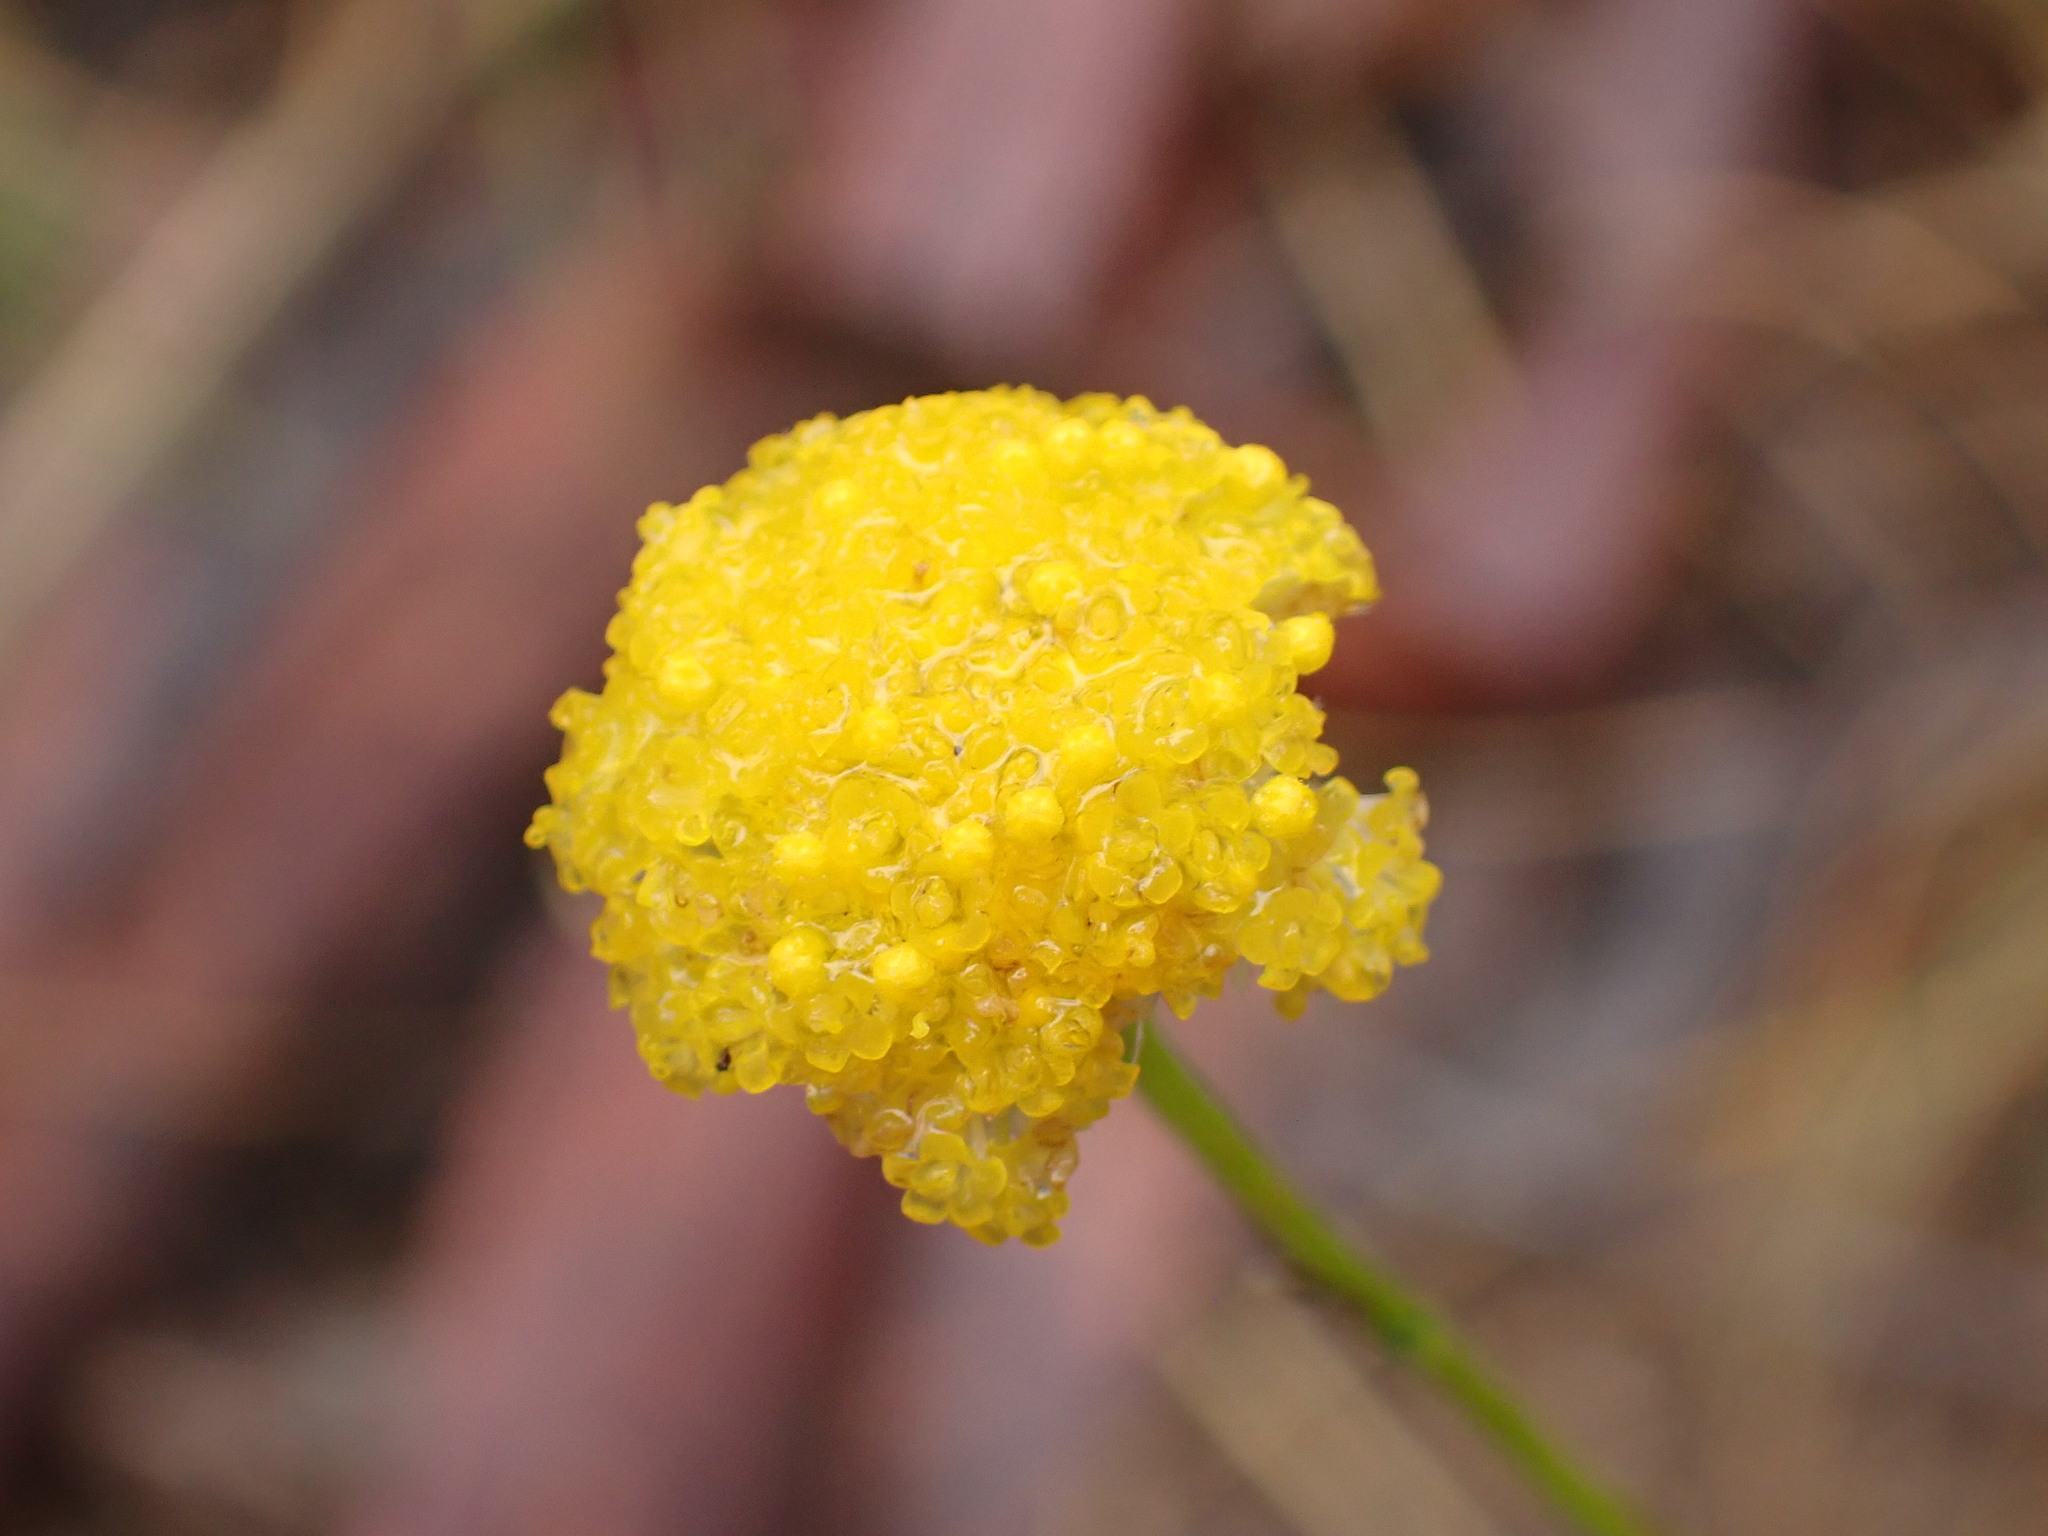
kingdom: Plantae
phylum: Tracheophyta
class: Magnoliopsida
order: Asterales
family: Asteraceae
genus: Craspedia
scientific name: Craspedia variabilis
